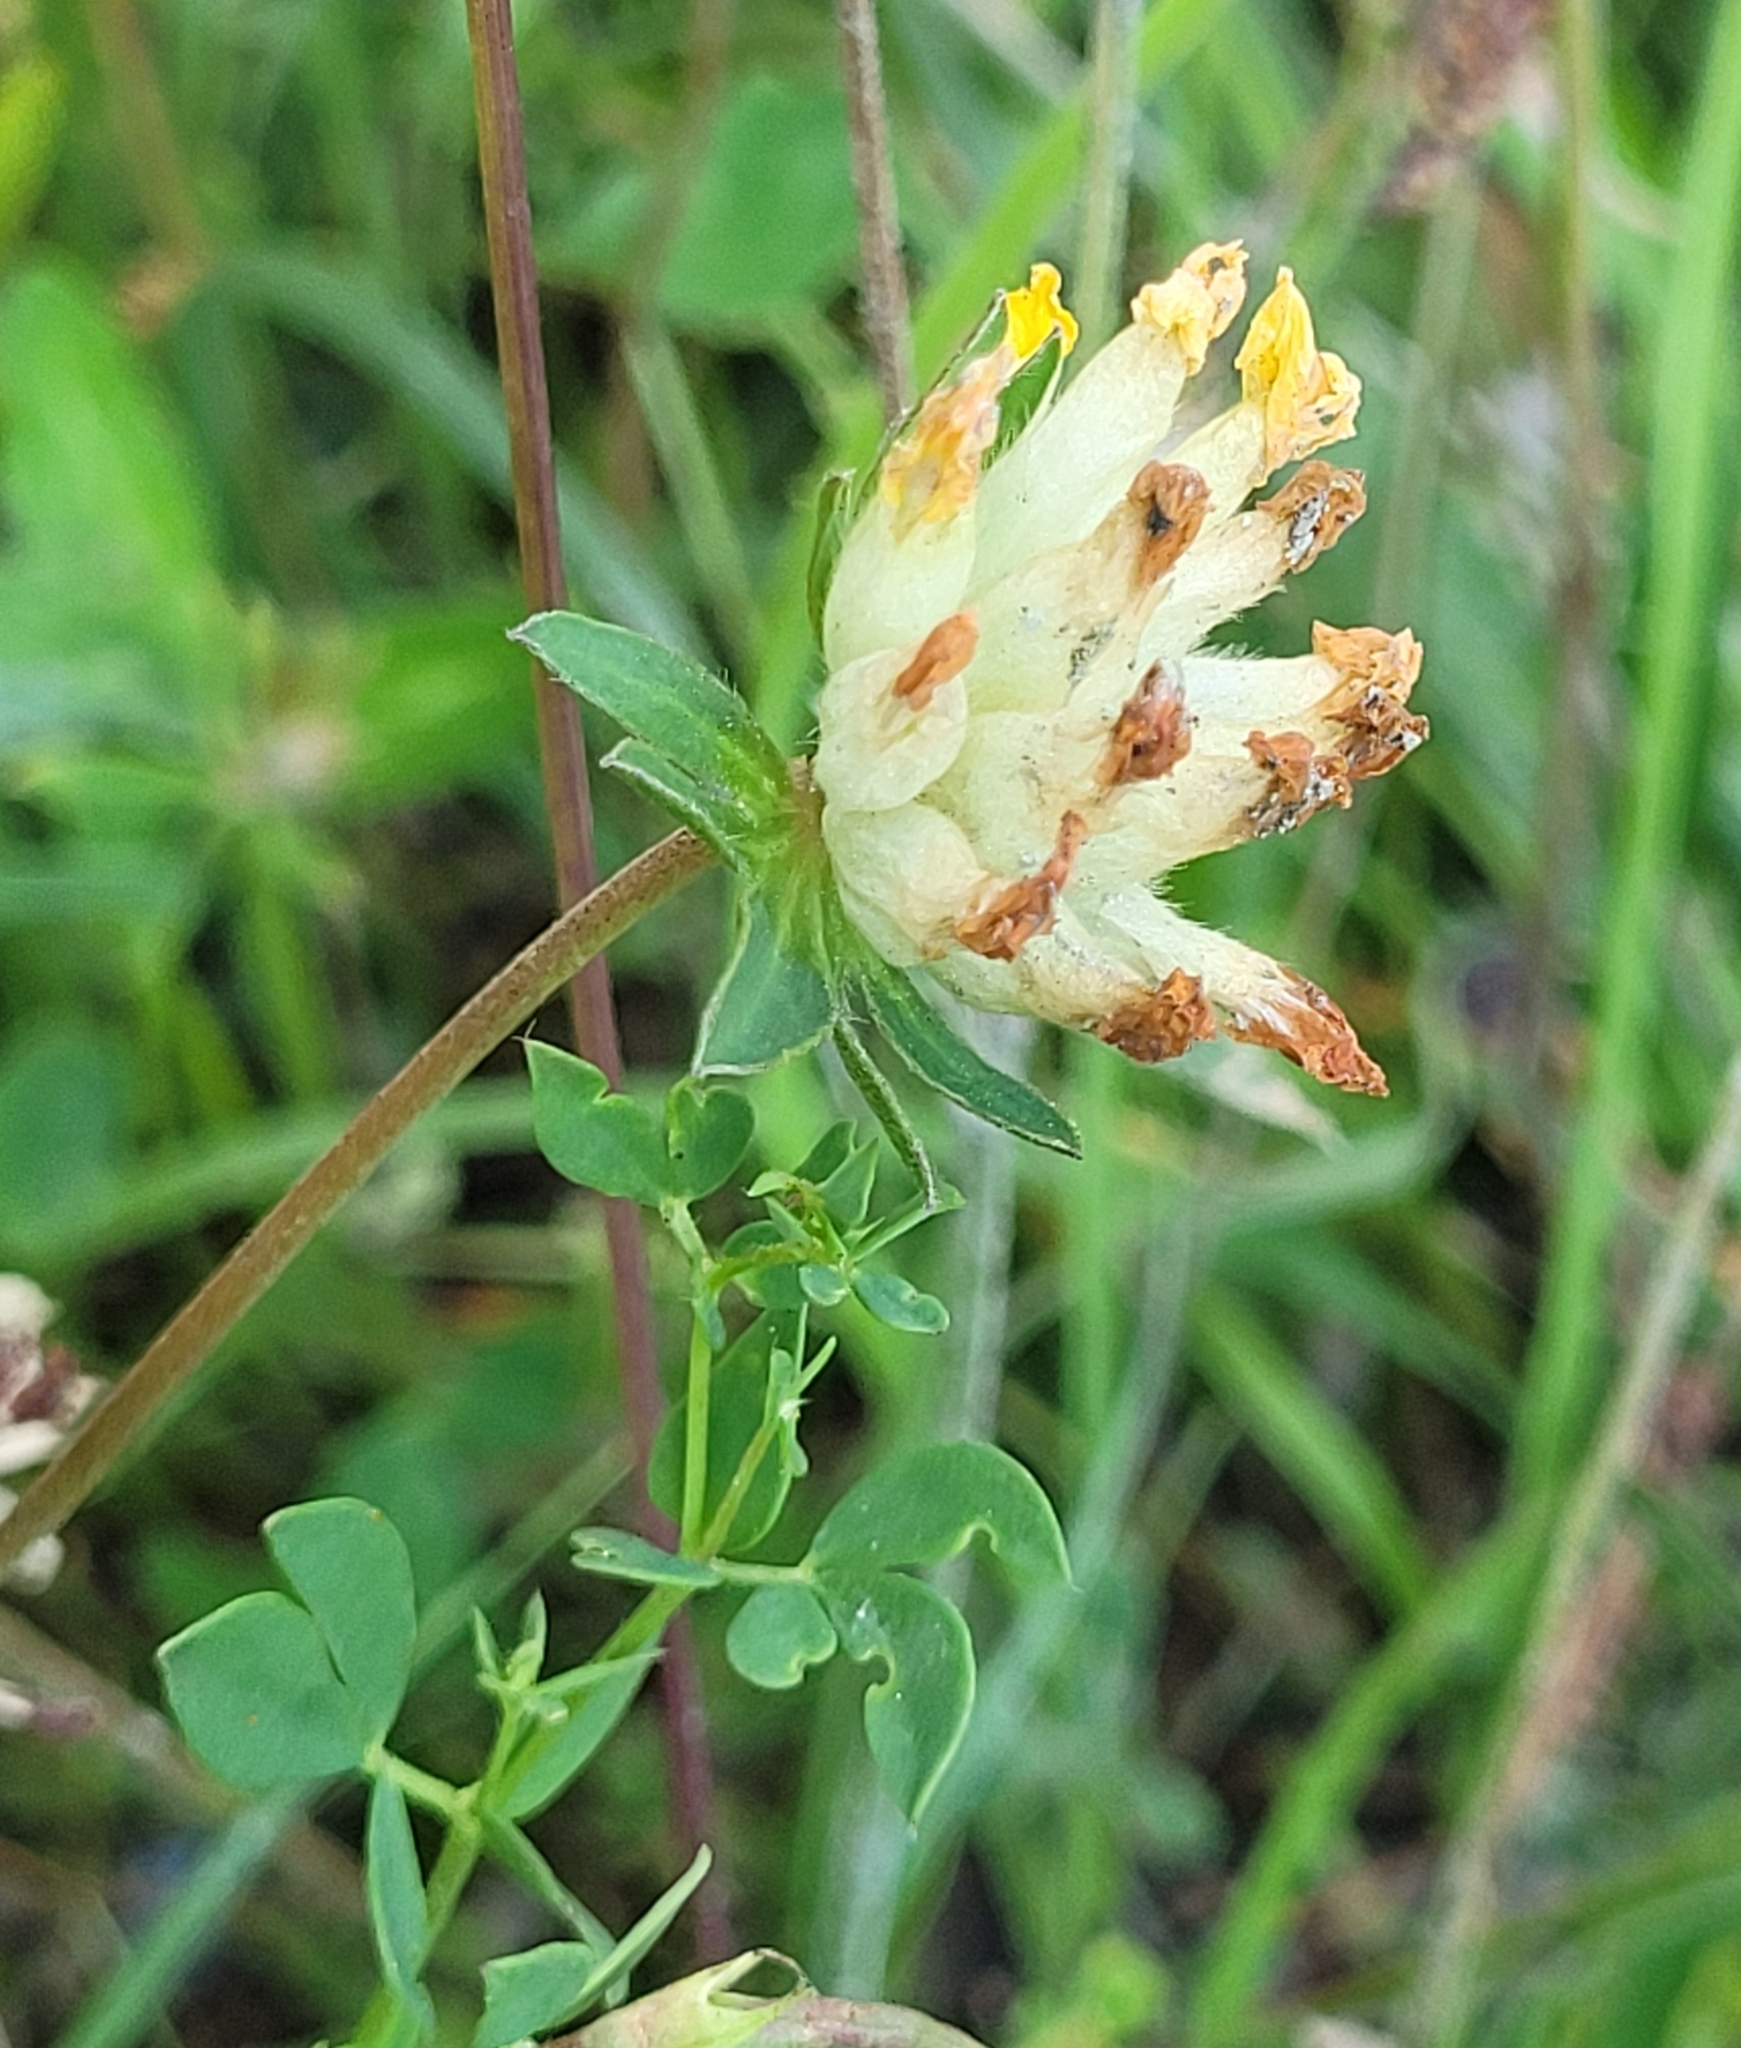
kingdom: Plantae
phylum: Tracheophyta
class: Magnoliopsida
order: Fabales
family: Fabaceae
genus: Anthyllis
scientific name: Anthyllis vulneraria
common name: Kidney vetch
